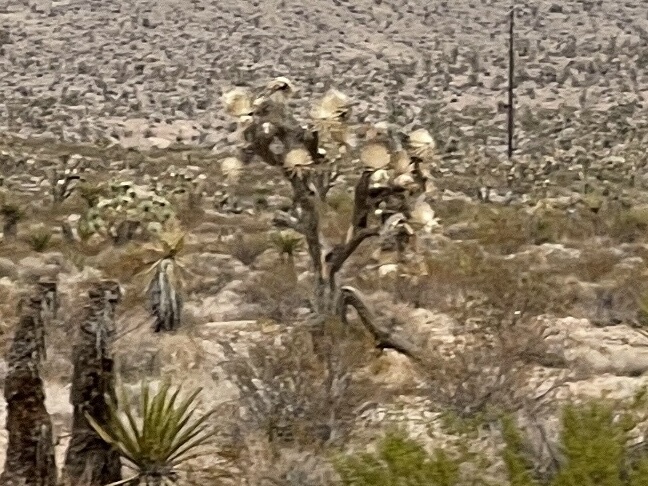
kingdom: Plantae
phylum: Tracheophyta
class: Liliopsida
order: Asparagales
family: Asparagaceae
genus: Yucca
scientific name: Yucca brevifolia
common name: Joshua tree
